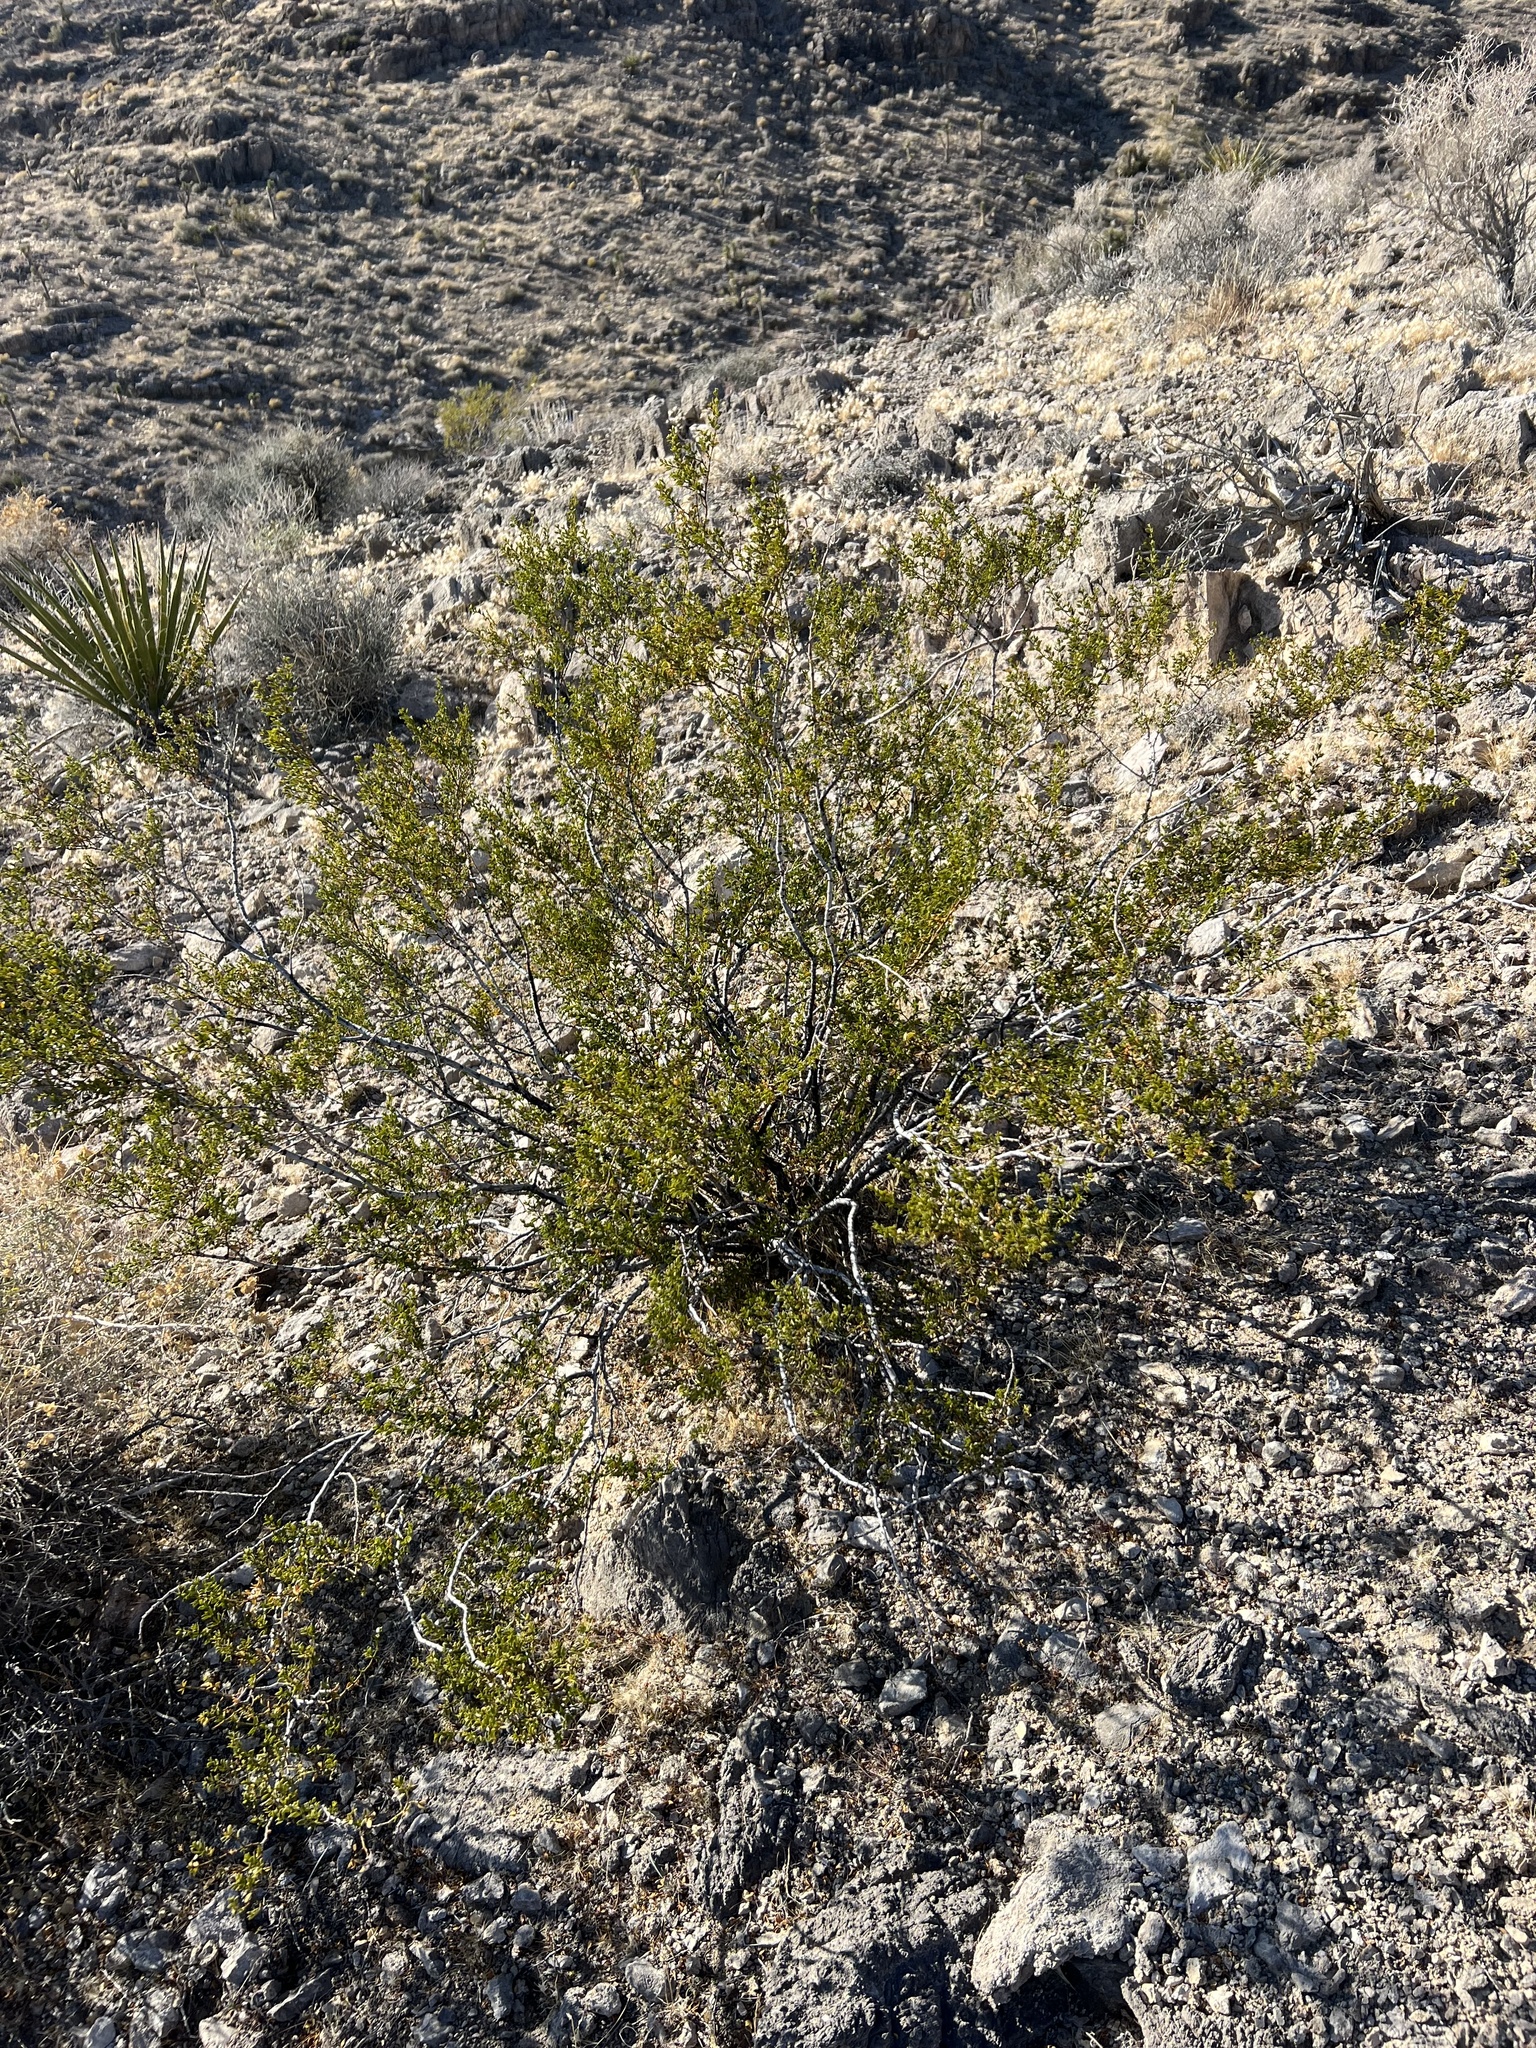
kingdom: Plantae
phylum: Tracheophyta
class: Magnoliopsida
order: Zygophyllales
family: Zygophyllaceae
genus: Larrea
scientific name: Larrea tridentata
